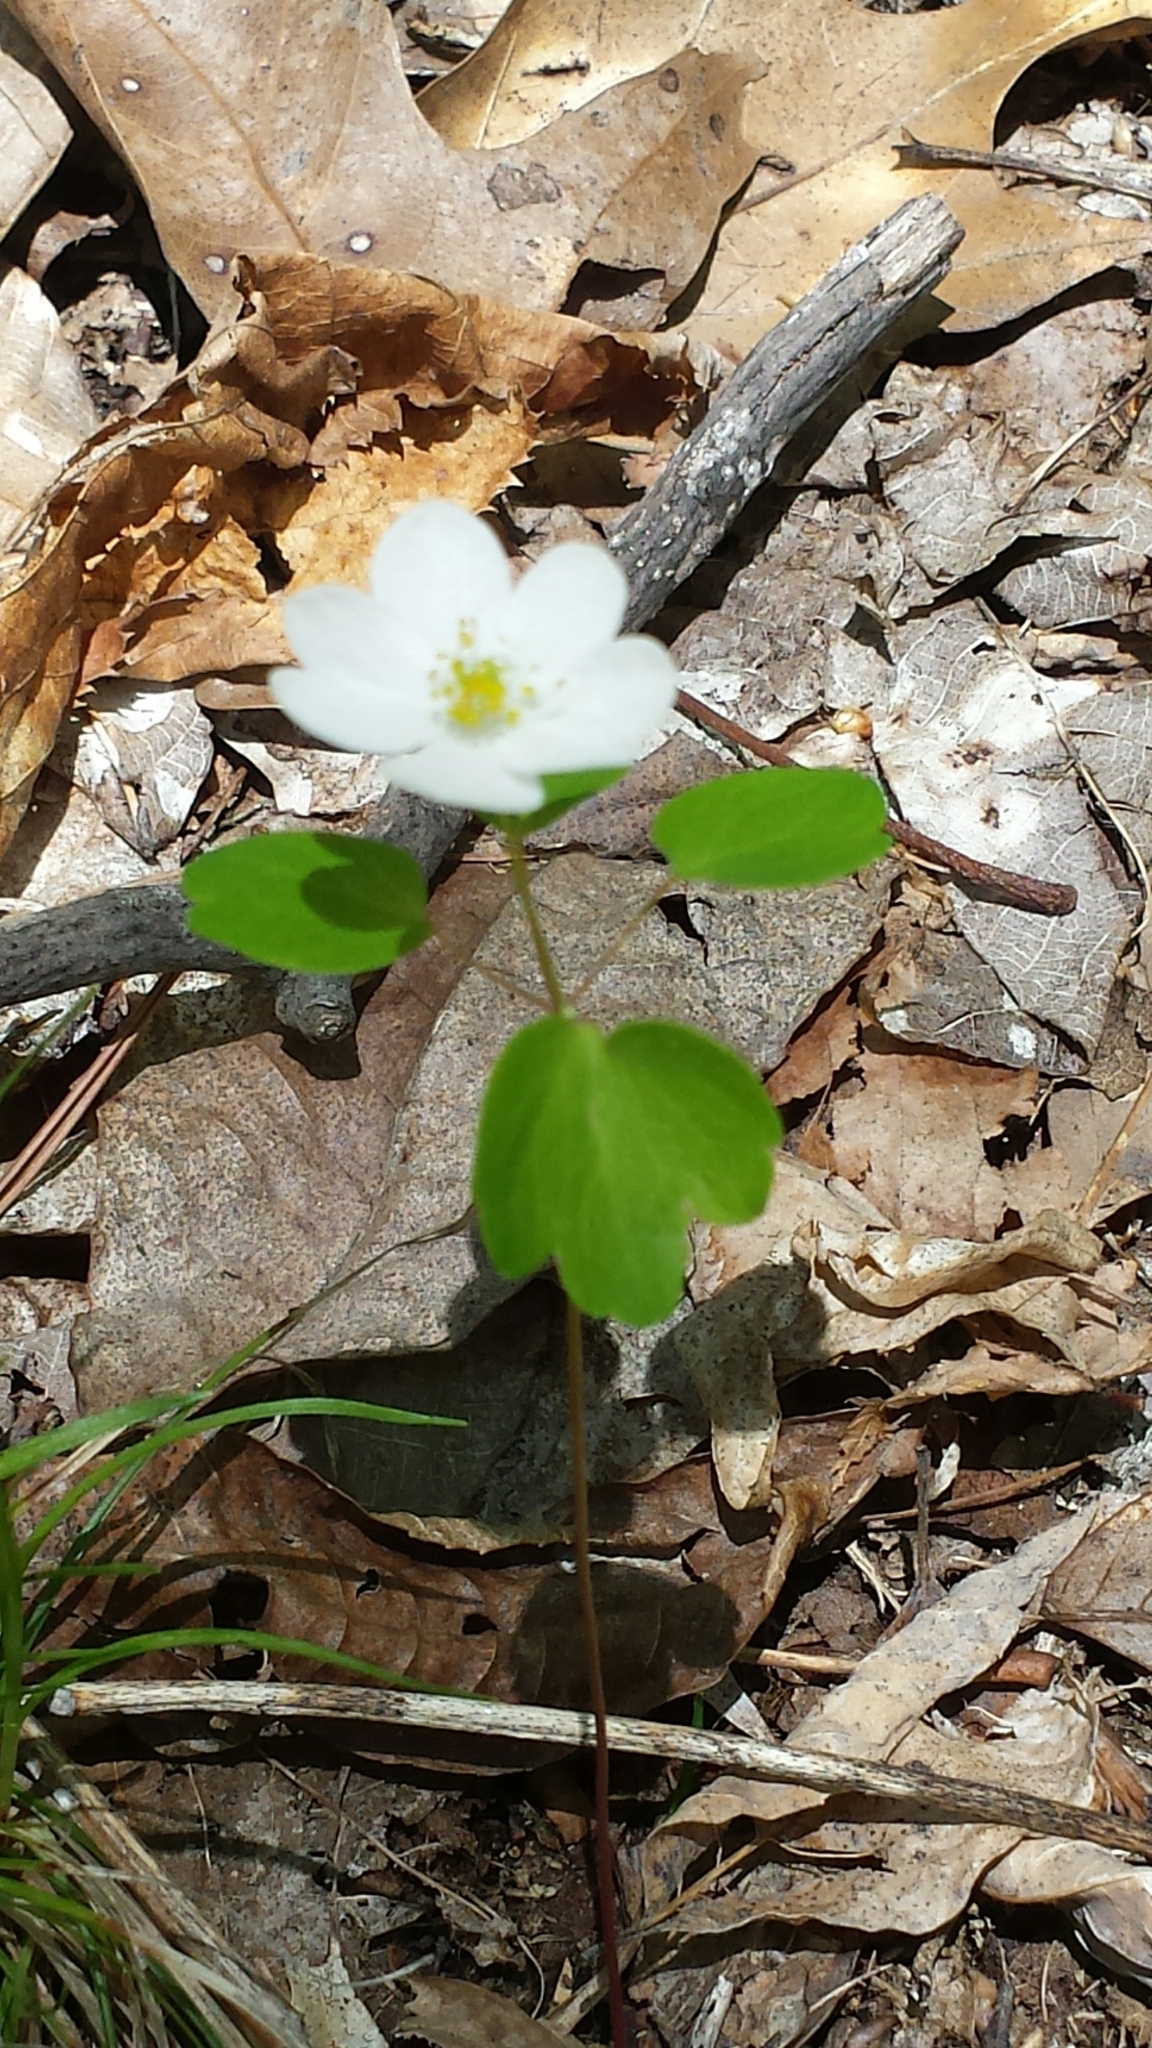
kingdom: Plantae
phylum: Tracheophyta
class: Magnoliopsida
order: Ranunculales
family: Ranunculaceae
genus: Thalictrum
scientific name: Thalictrum thalictroides
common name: Rue-anemone
